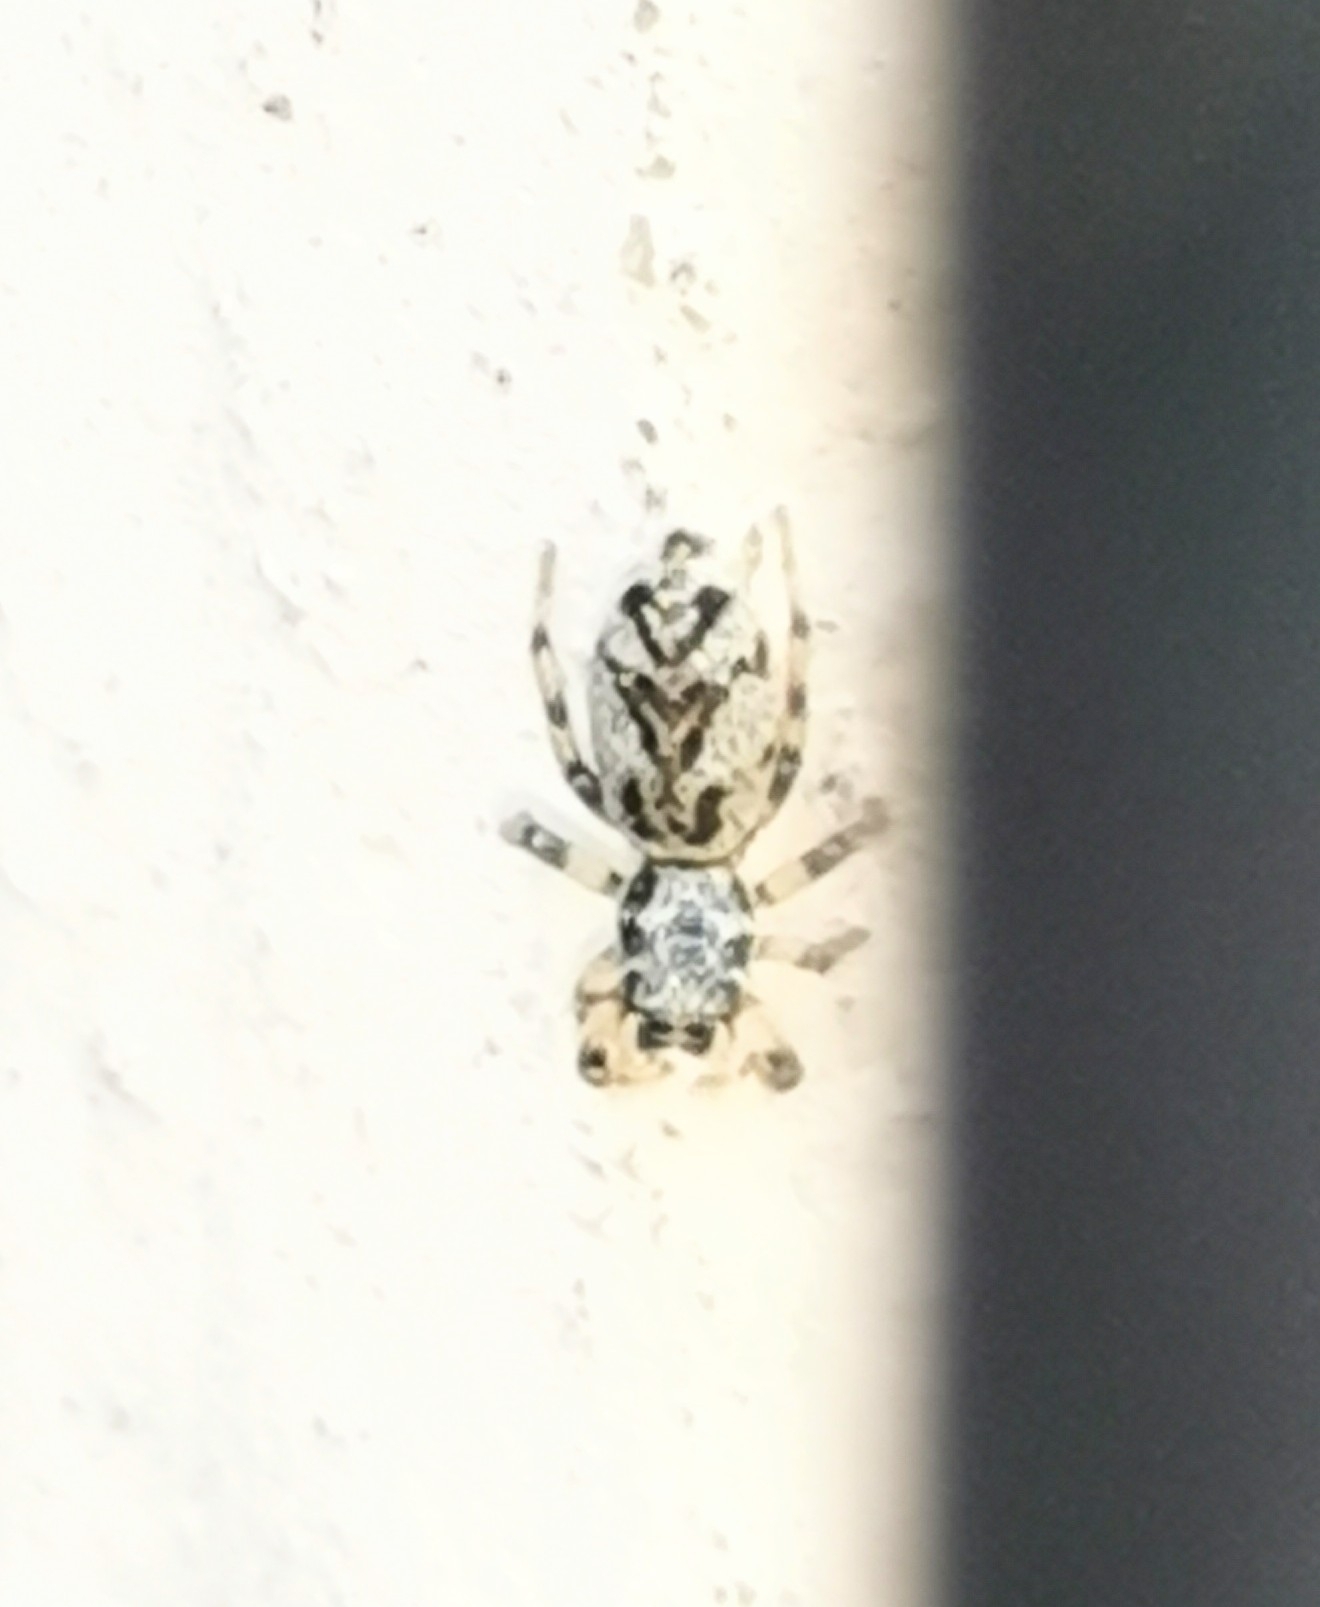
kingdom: Animalia
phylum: Arthropoda
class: Arachnida
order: Araneae
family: Salticidae
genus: Salticus
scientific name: Salticus cingulatus
